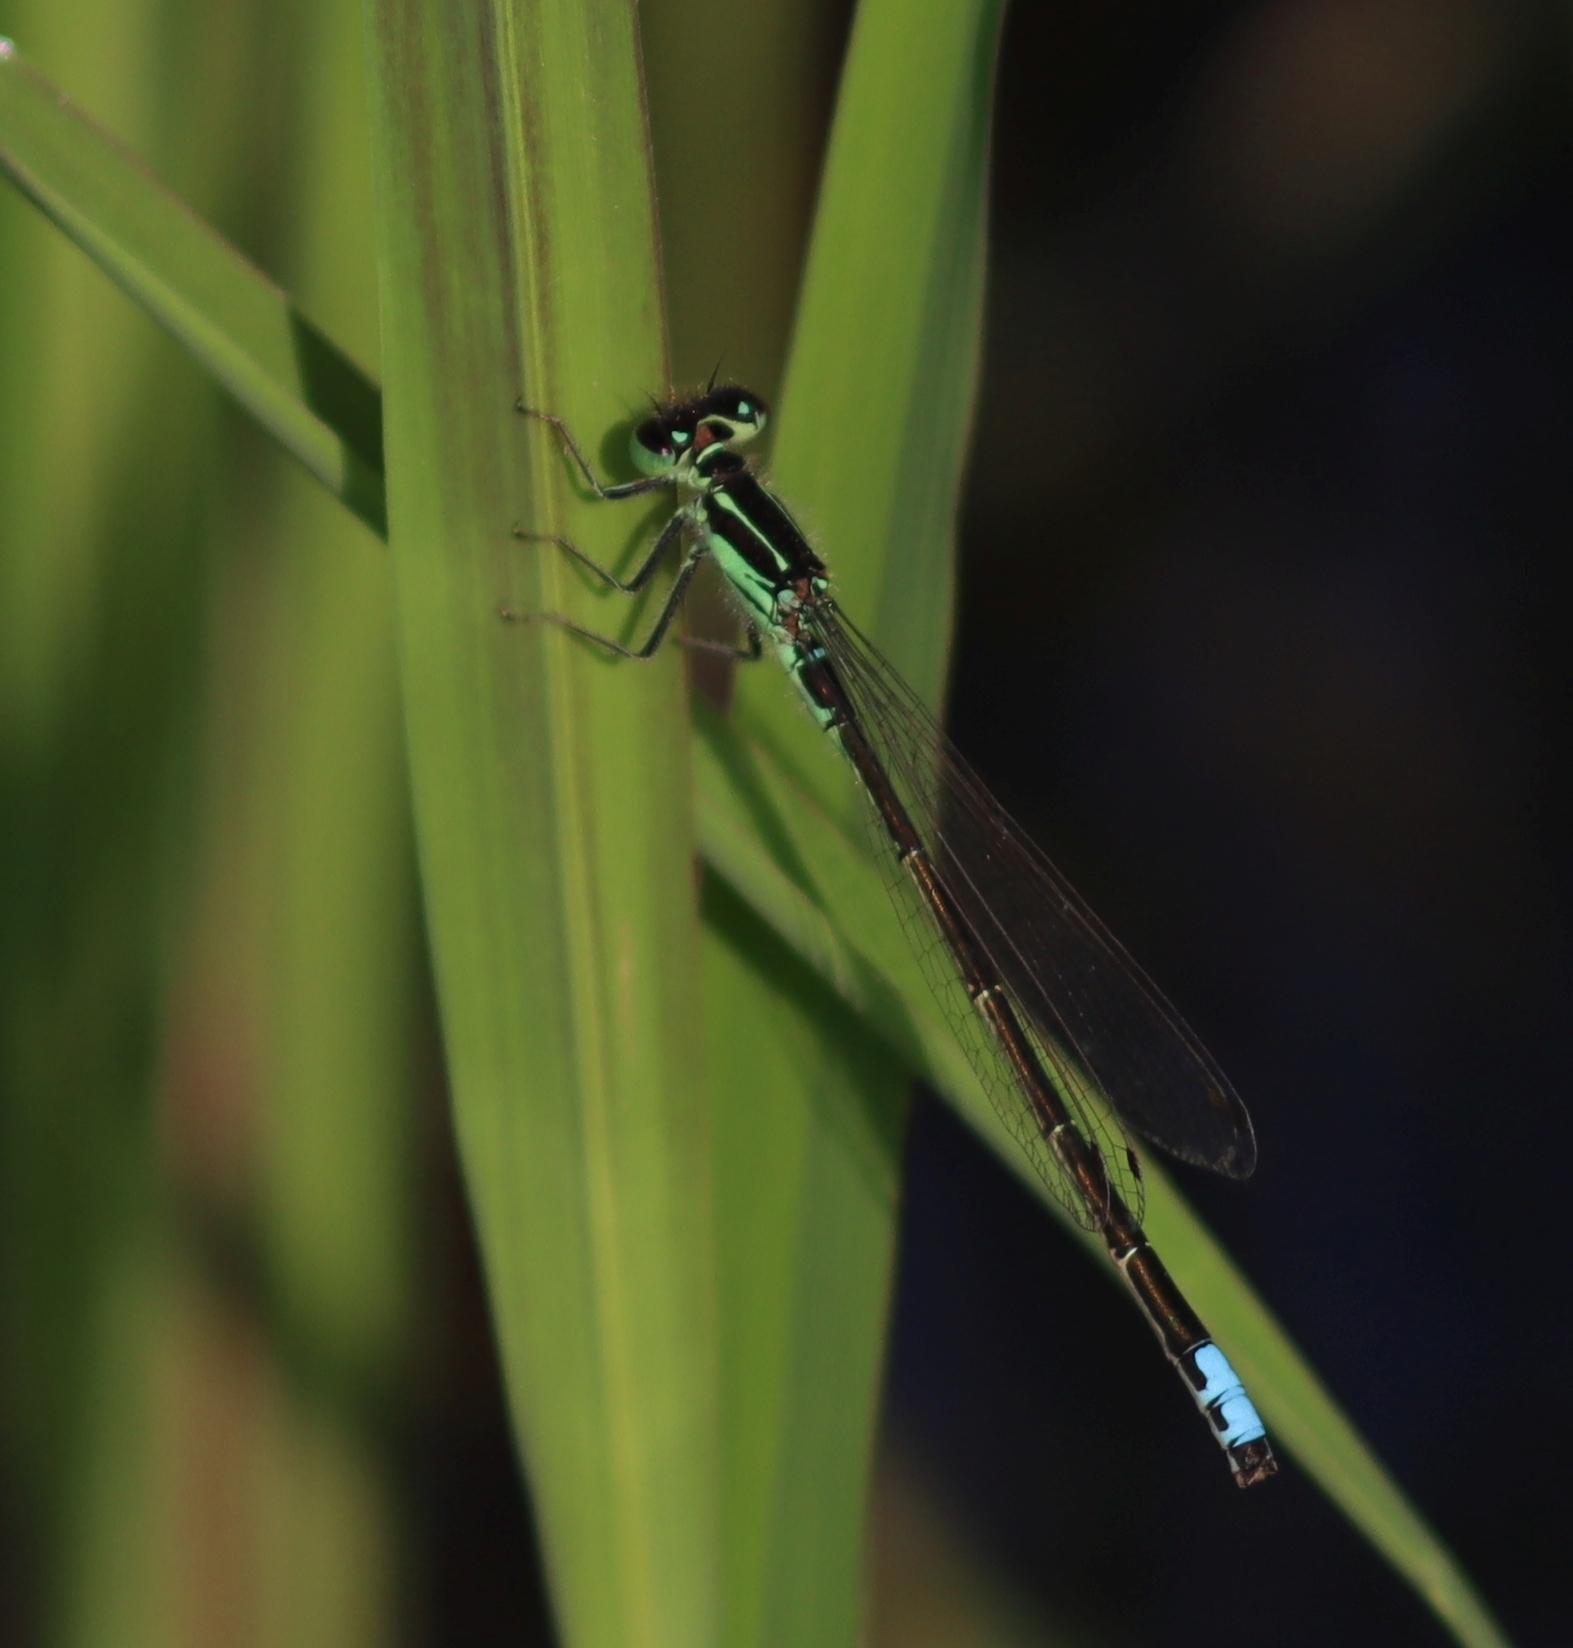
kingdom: Animalia
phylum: Arthropoda
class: Insecta
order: Odonata
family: Coenagrionidae
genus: Ischnura
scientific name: Ischnura verticalis
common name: Eastern forktail
